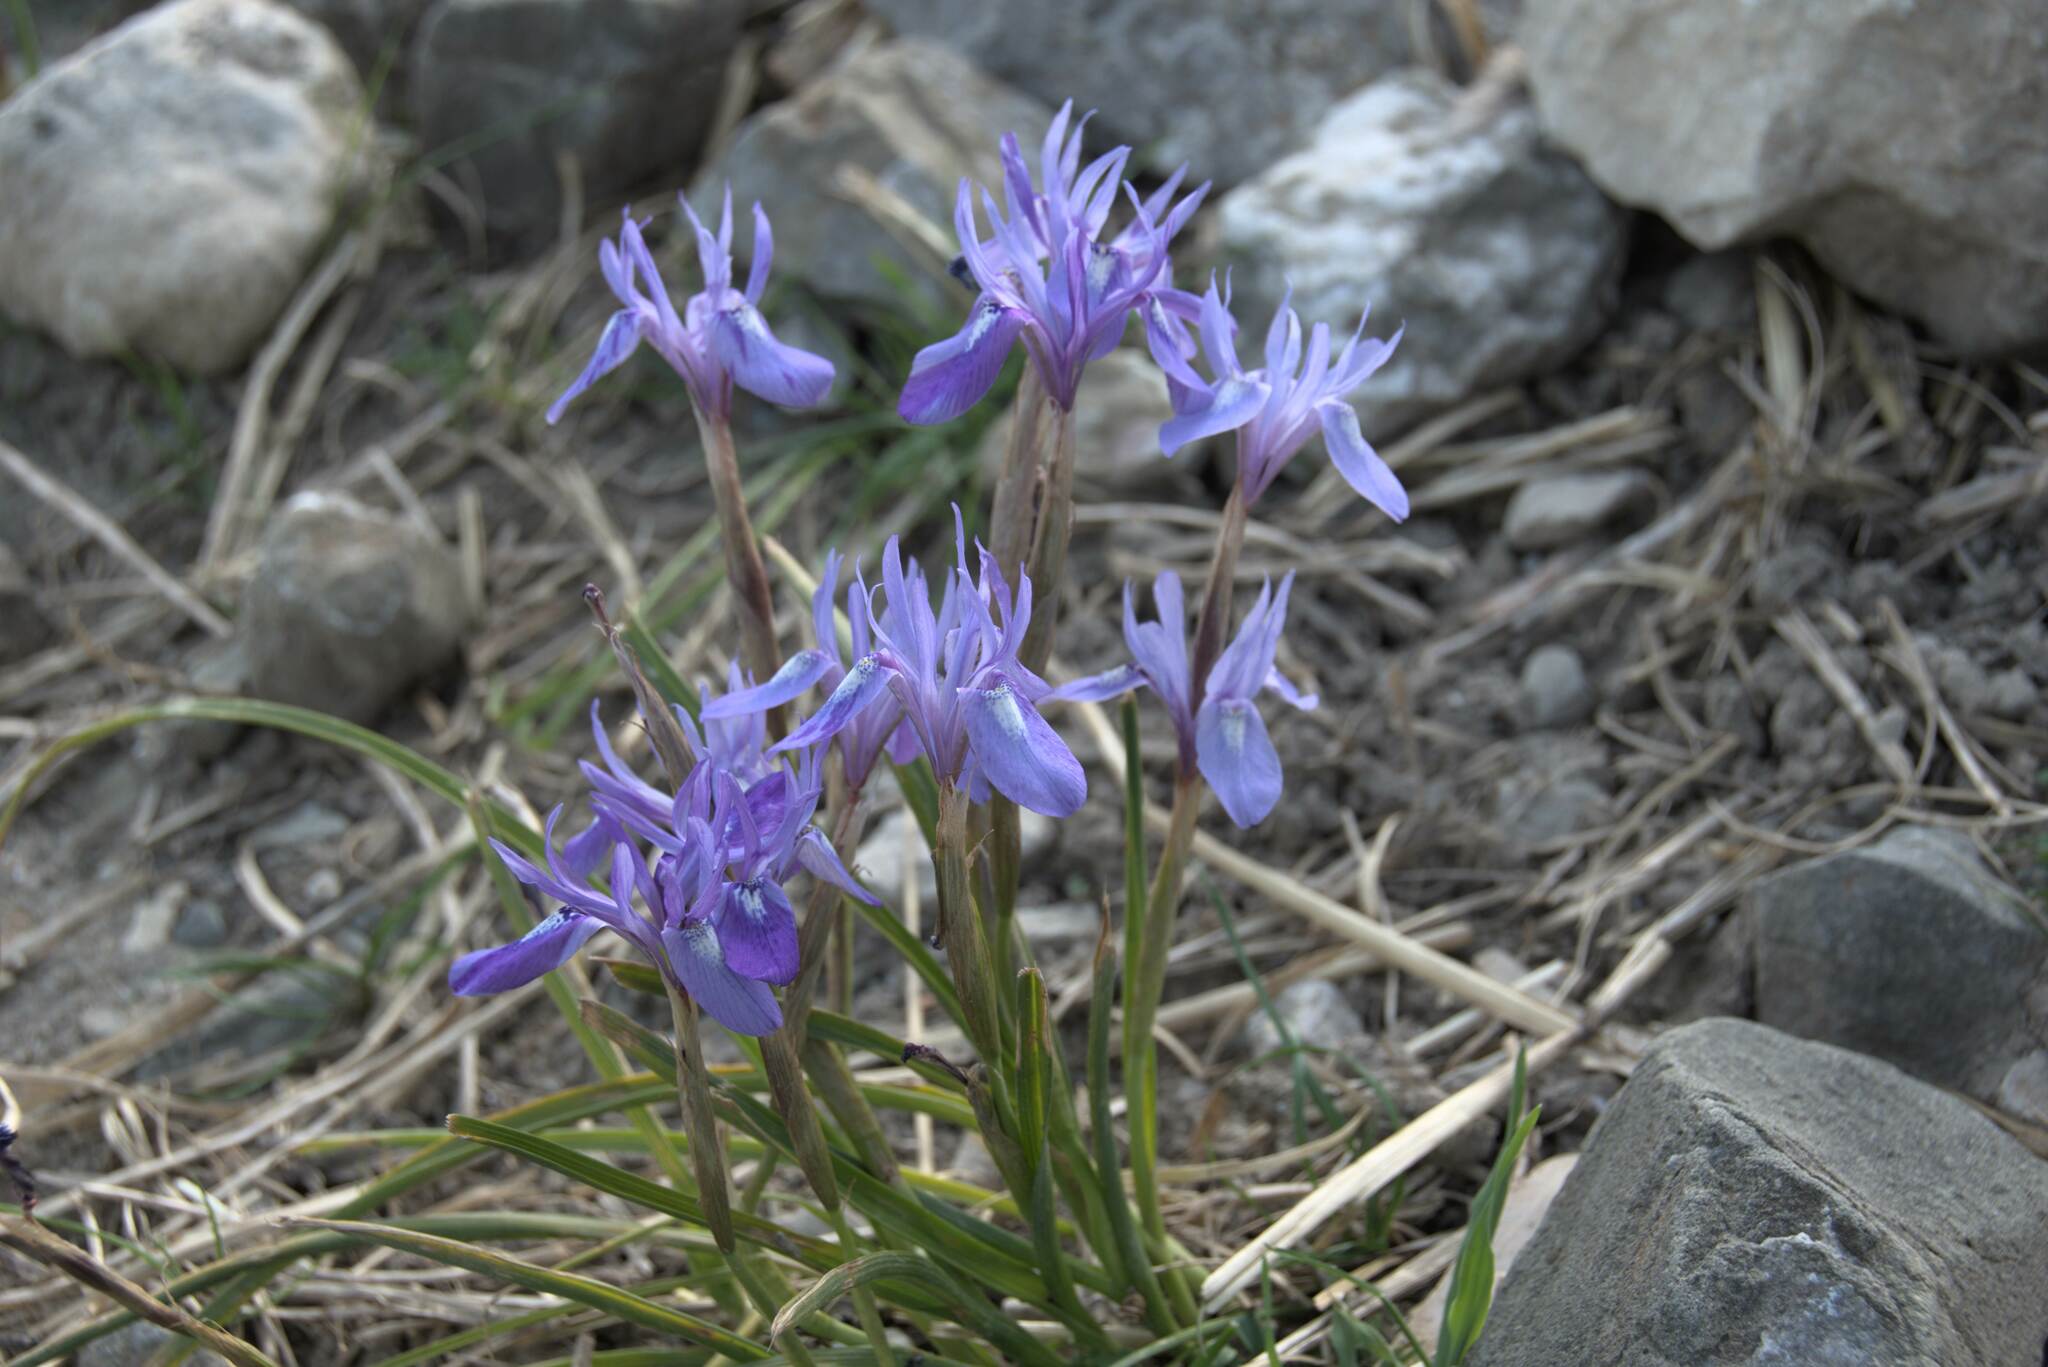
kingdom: Plantae
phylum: Tracheophyta
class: Liliopsida
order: Asparagales
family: Iridaceae
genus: Moraea
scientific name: Moraea sisyrinchium
